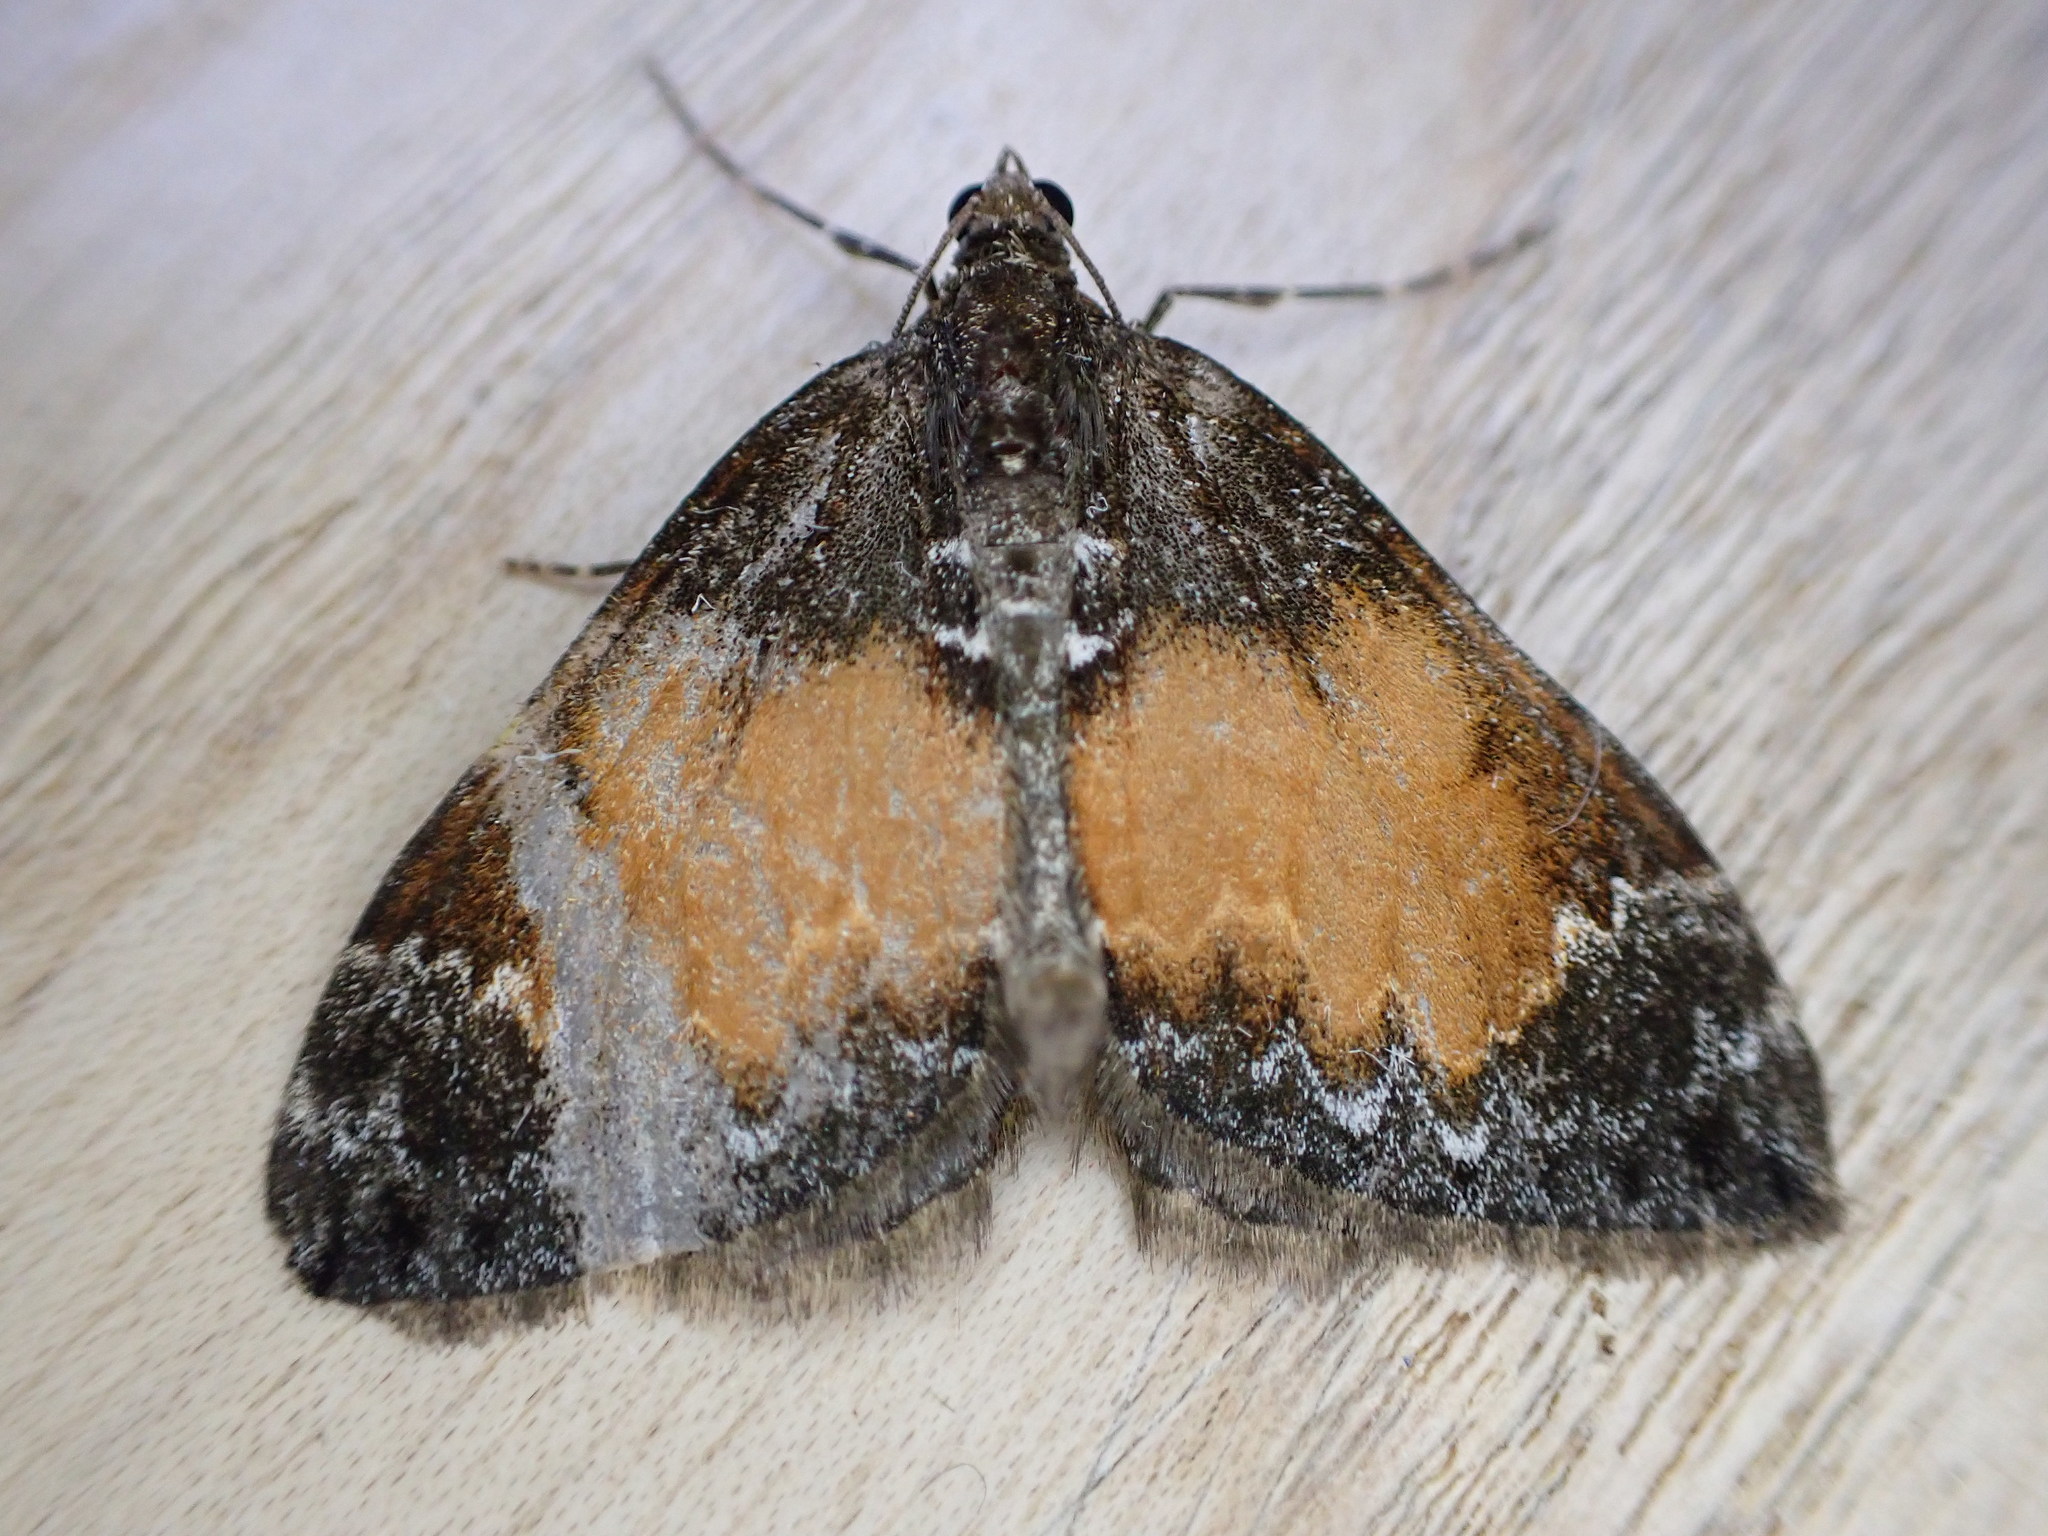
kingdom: Animalia
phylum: Arthropoda
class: Insecta
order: Lepidoptera
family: Geometridae
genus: Dysstroma
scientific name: Dysstroma truncata
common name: Common marbled carpet
